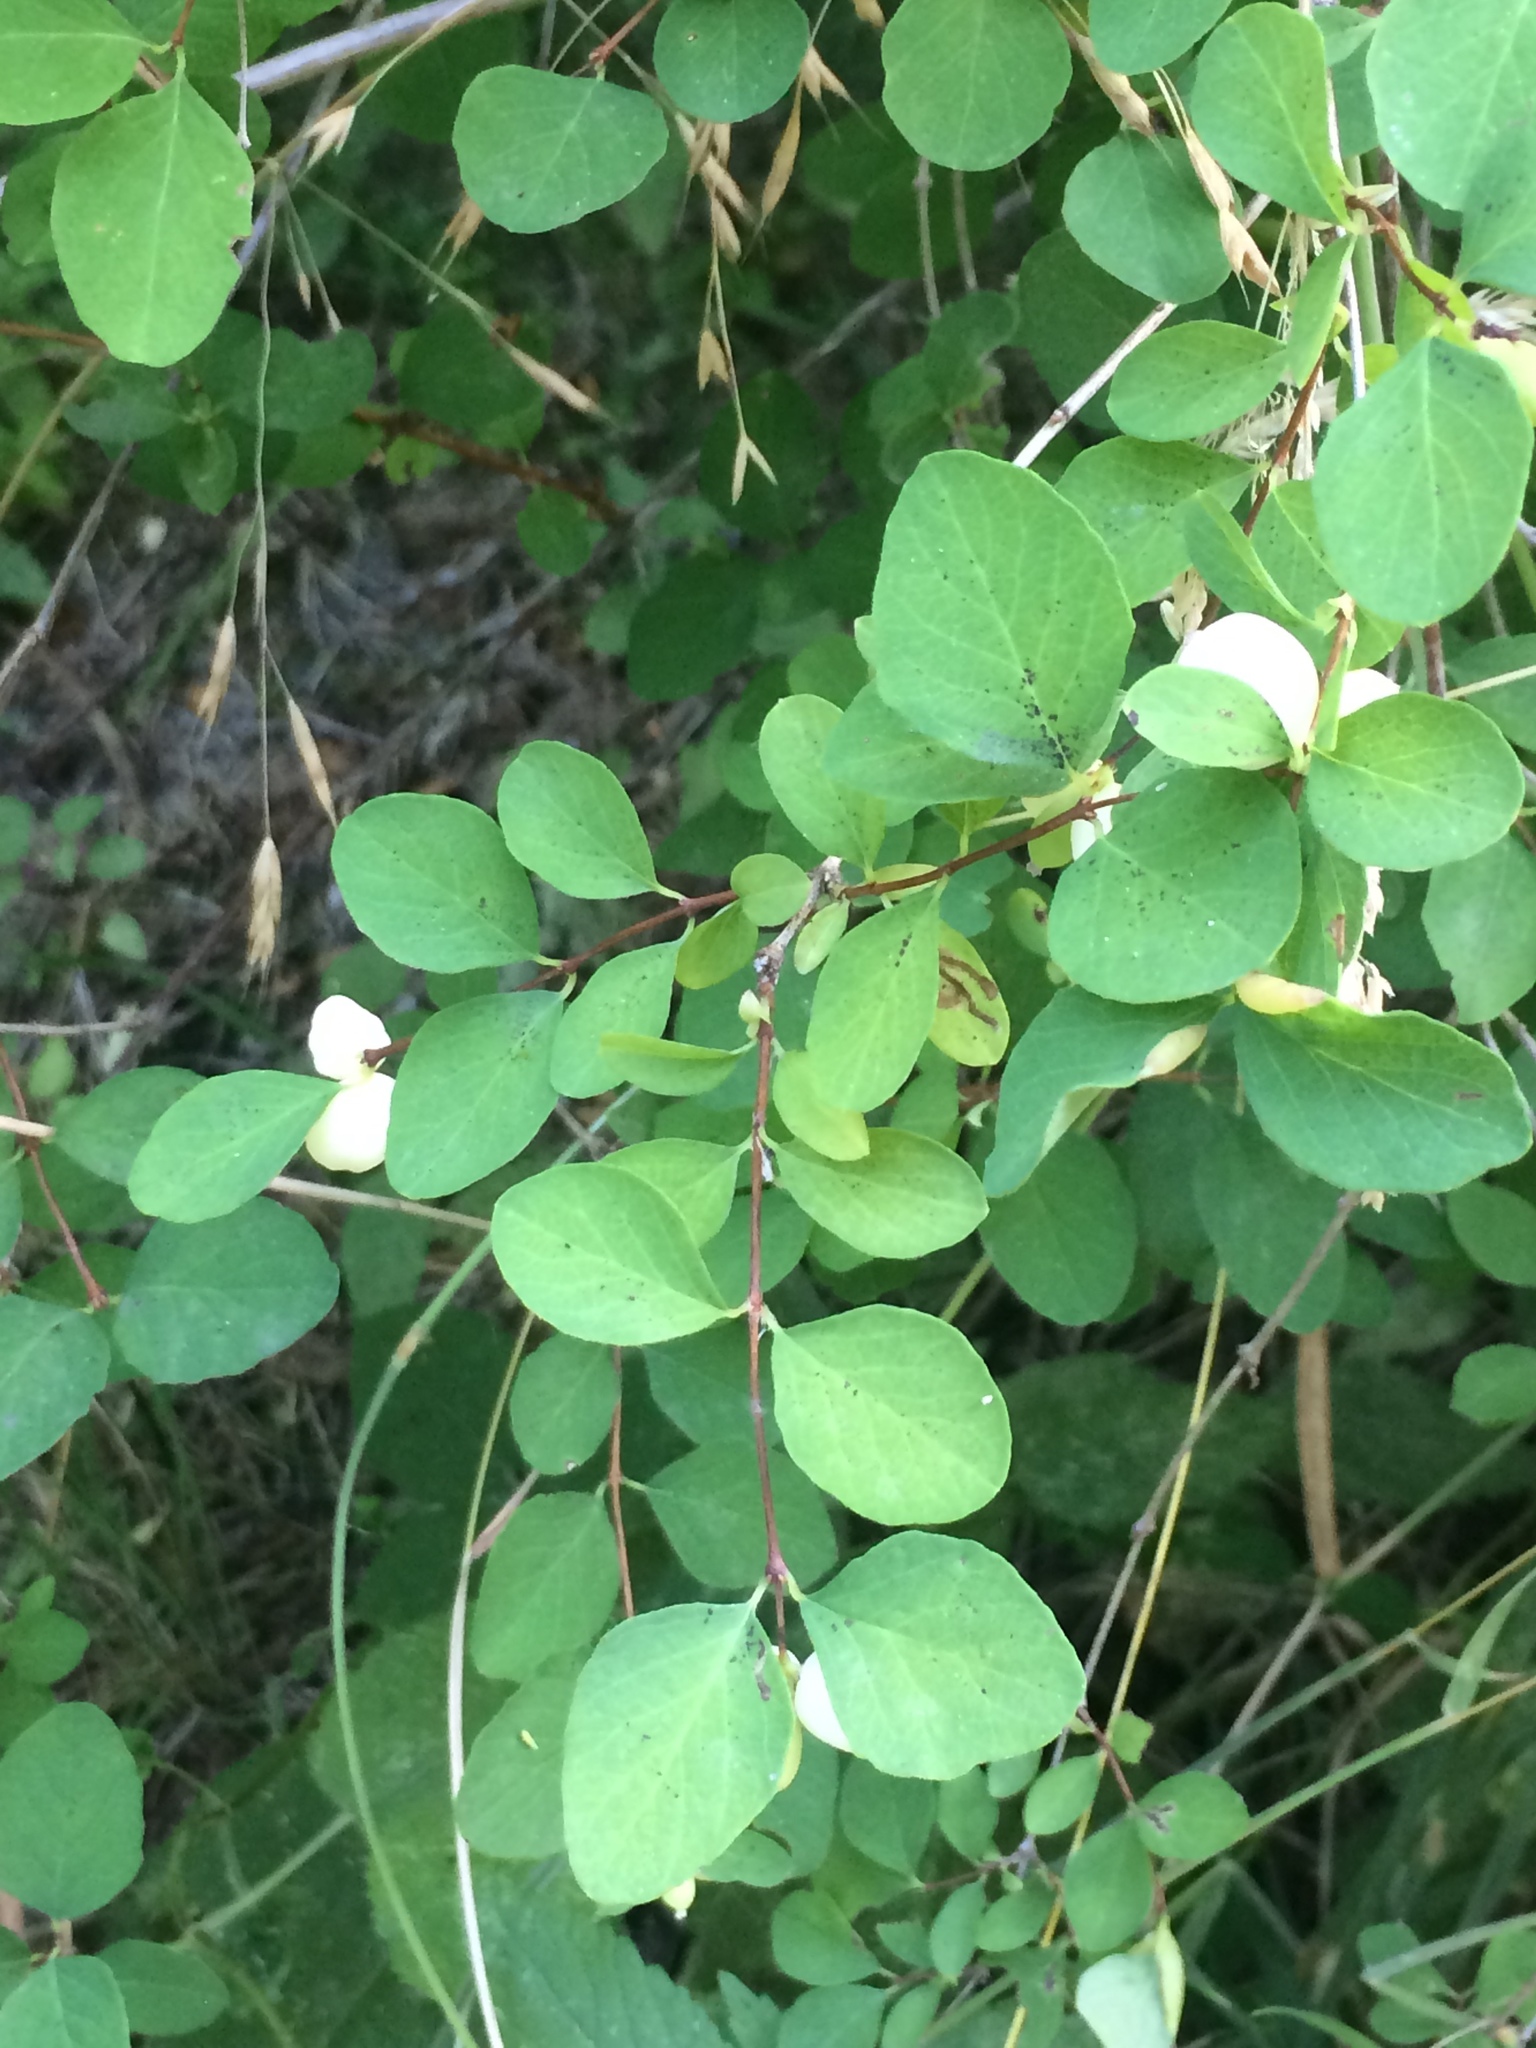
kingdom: Plantae
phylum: Tracheophyta
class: Magnoliopsida
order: Dipsacales
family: Caprifoliaceae
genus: Symphoricarpos
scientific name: Symphoricarpos albus
